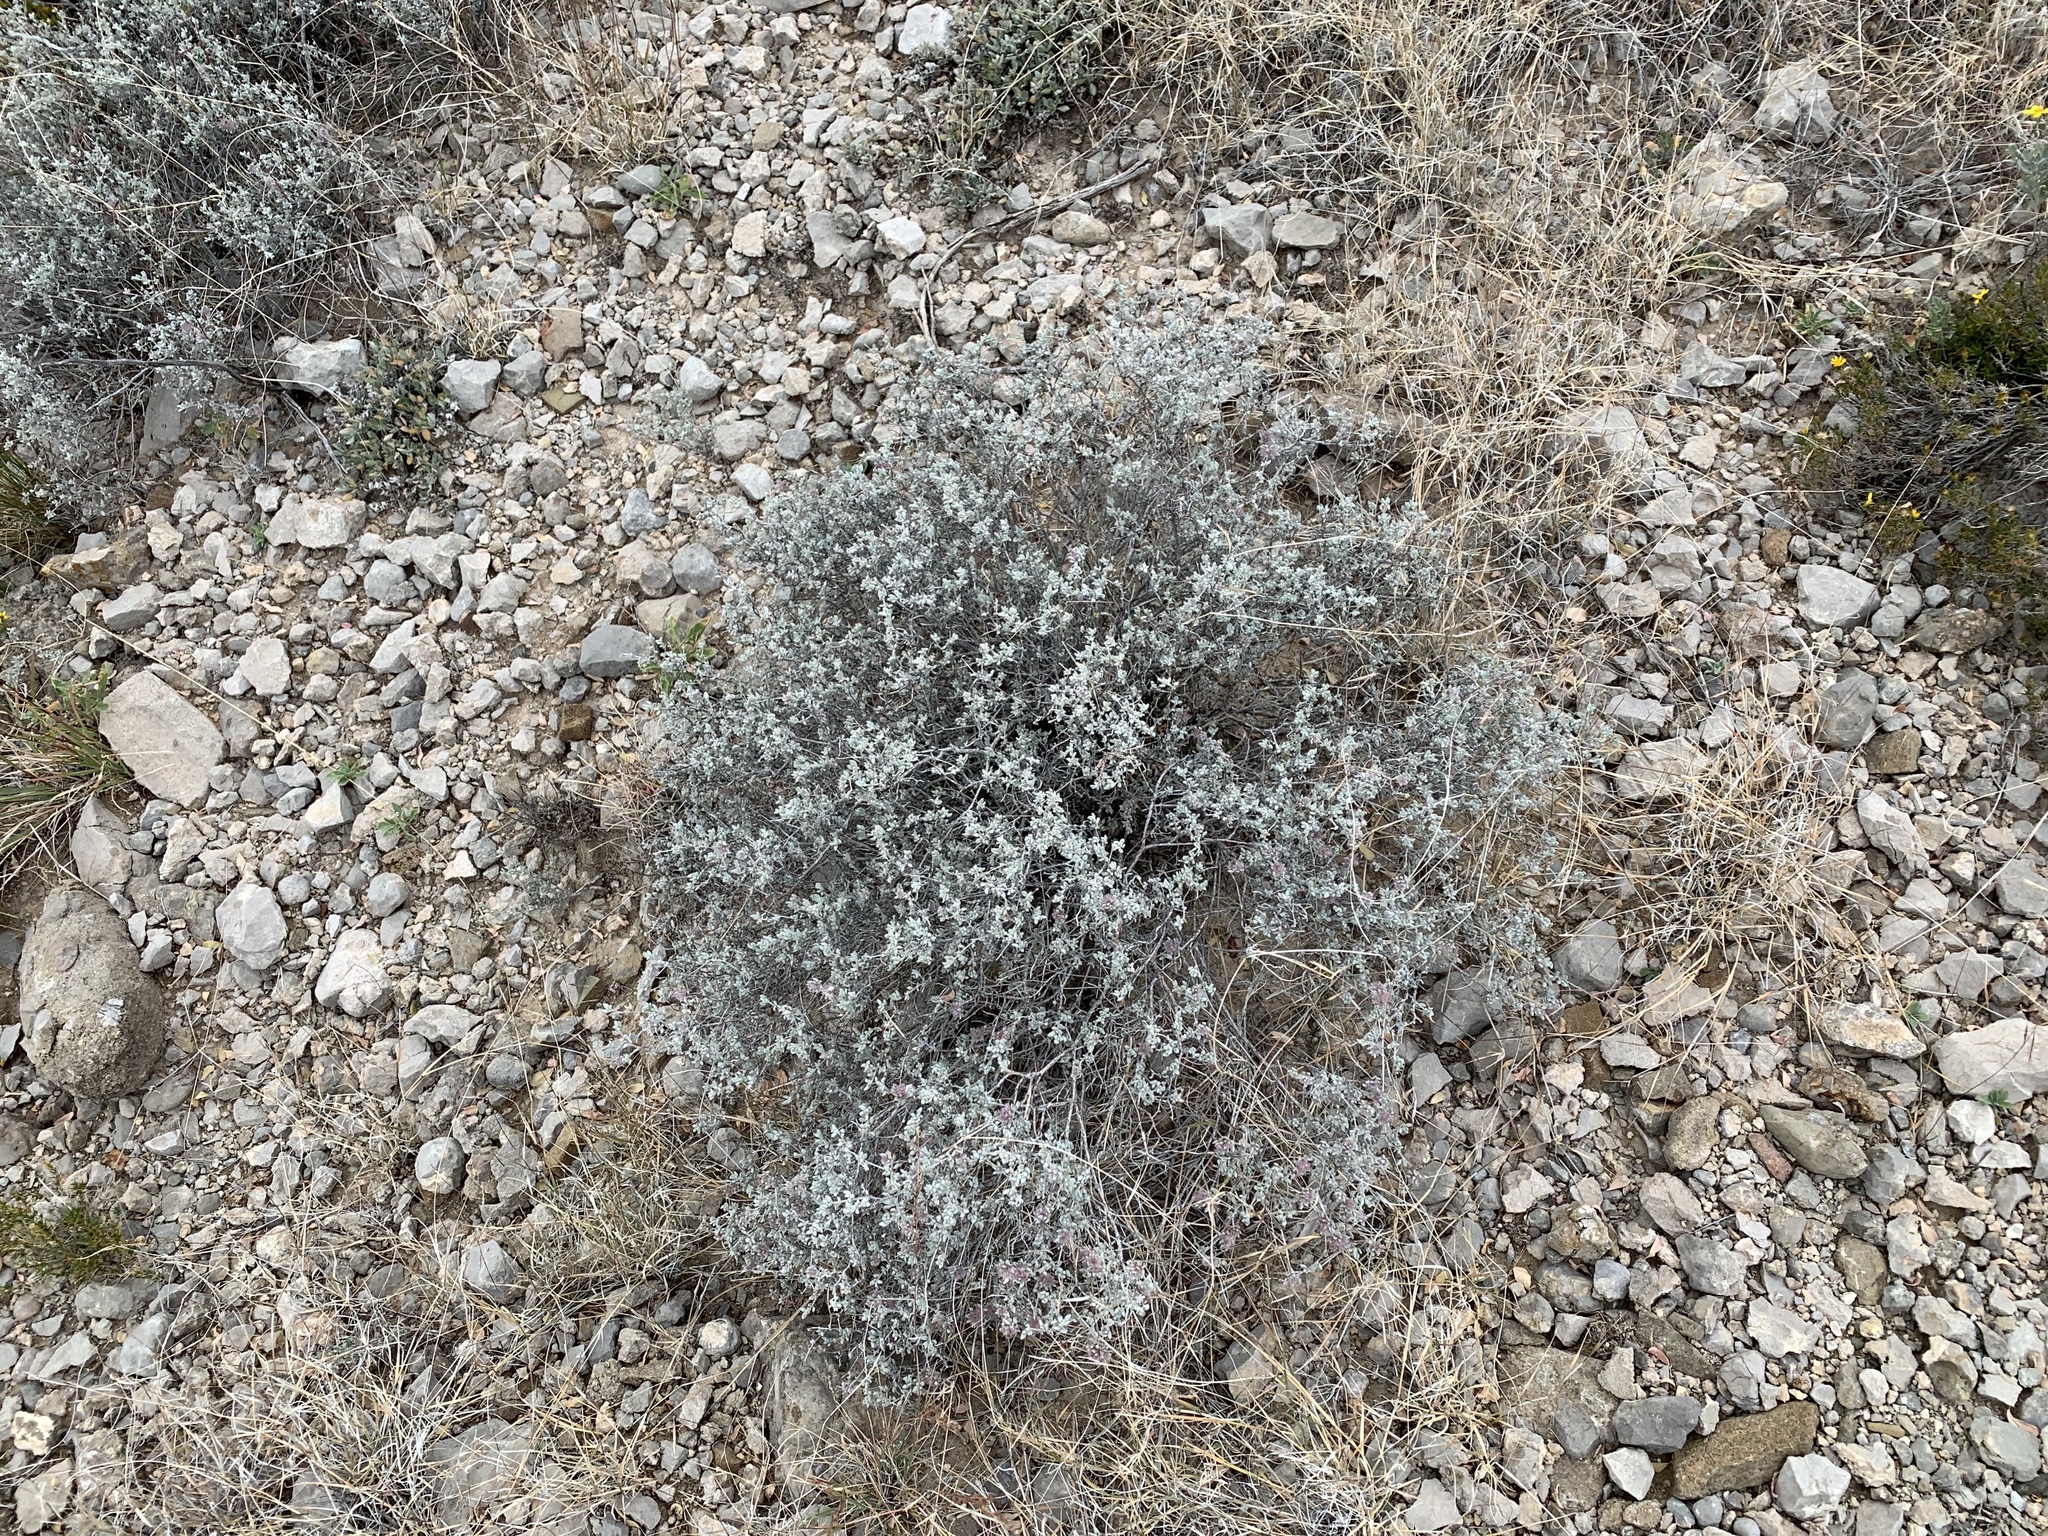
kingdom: Plantae
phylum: Tracheophyta
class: Magnoliopsida
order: Asterales
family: Asteraceae
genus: Parthenium
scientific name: Parthenium incanum
